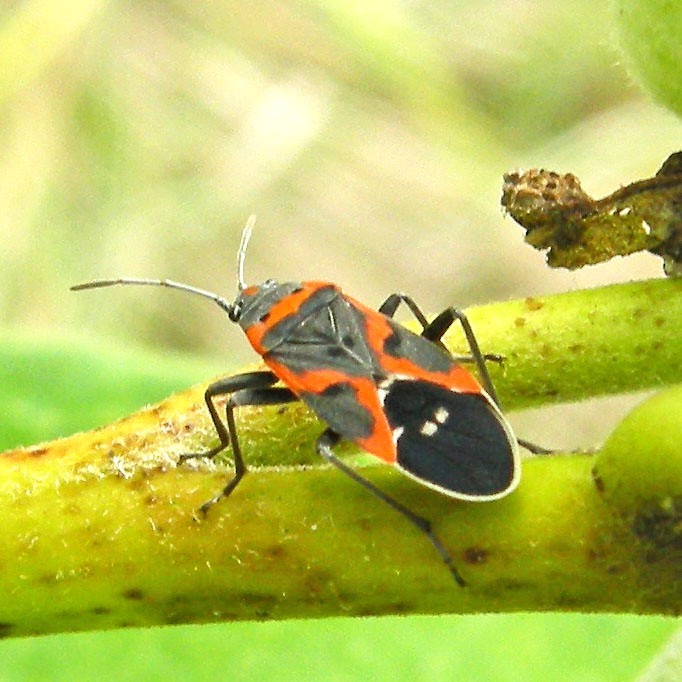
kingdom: Animalia
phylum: Arthropoda
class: Insecta
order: Hemiptera
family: Lygaeidae
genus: Lygaeus
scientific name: Lygaeus kalmii
